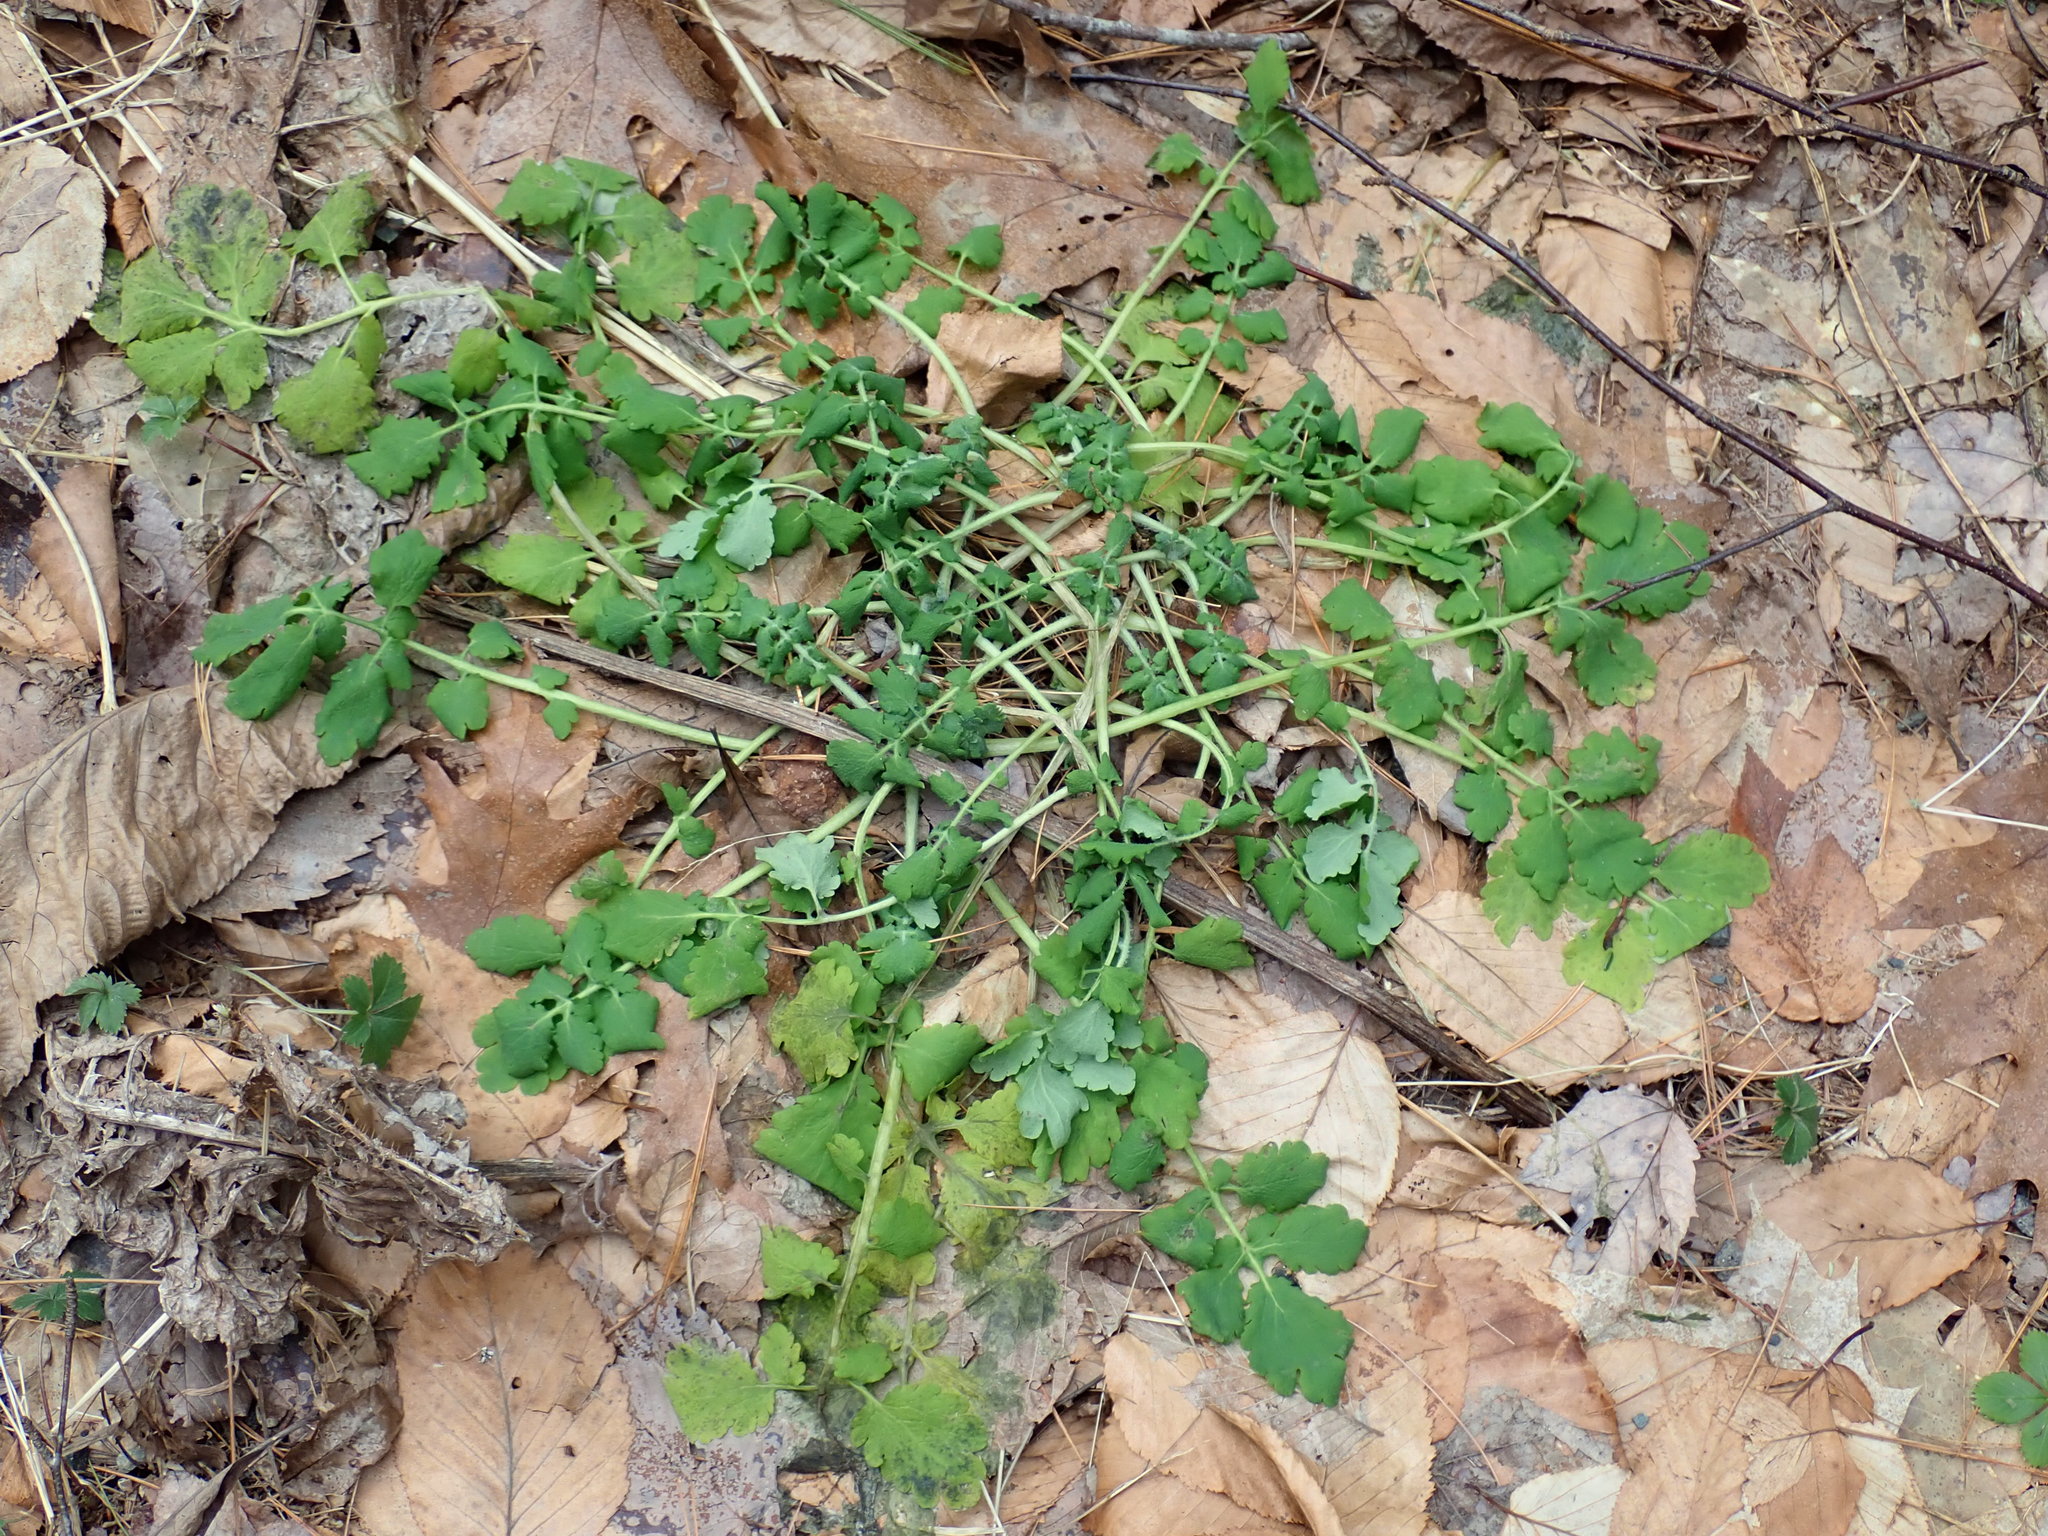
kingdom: Plantae
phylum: Tracheophyta
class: Magnoliopsida
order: Ranunculales
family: Papaveraceae
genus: Chelidonium
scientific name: Chelidonium majus
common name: Greater celandine
